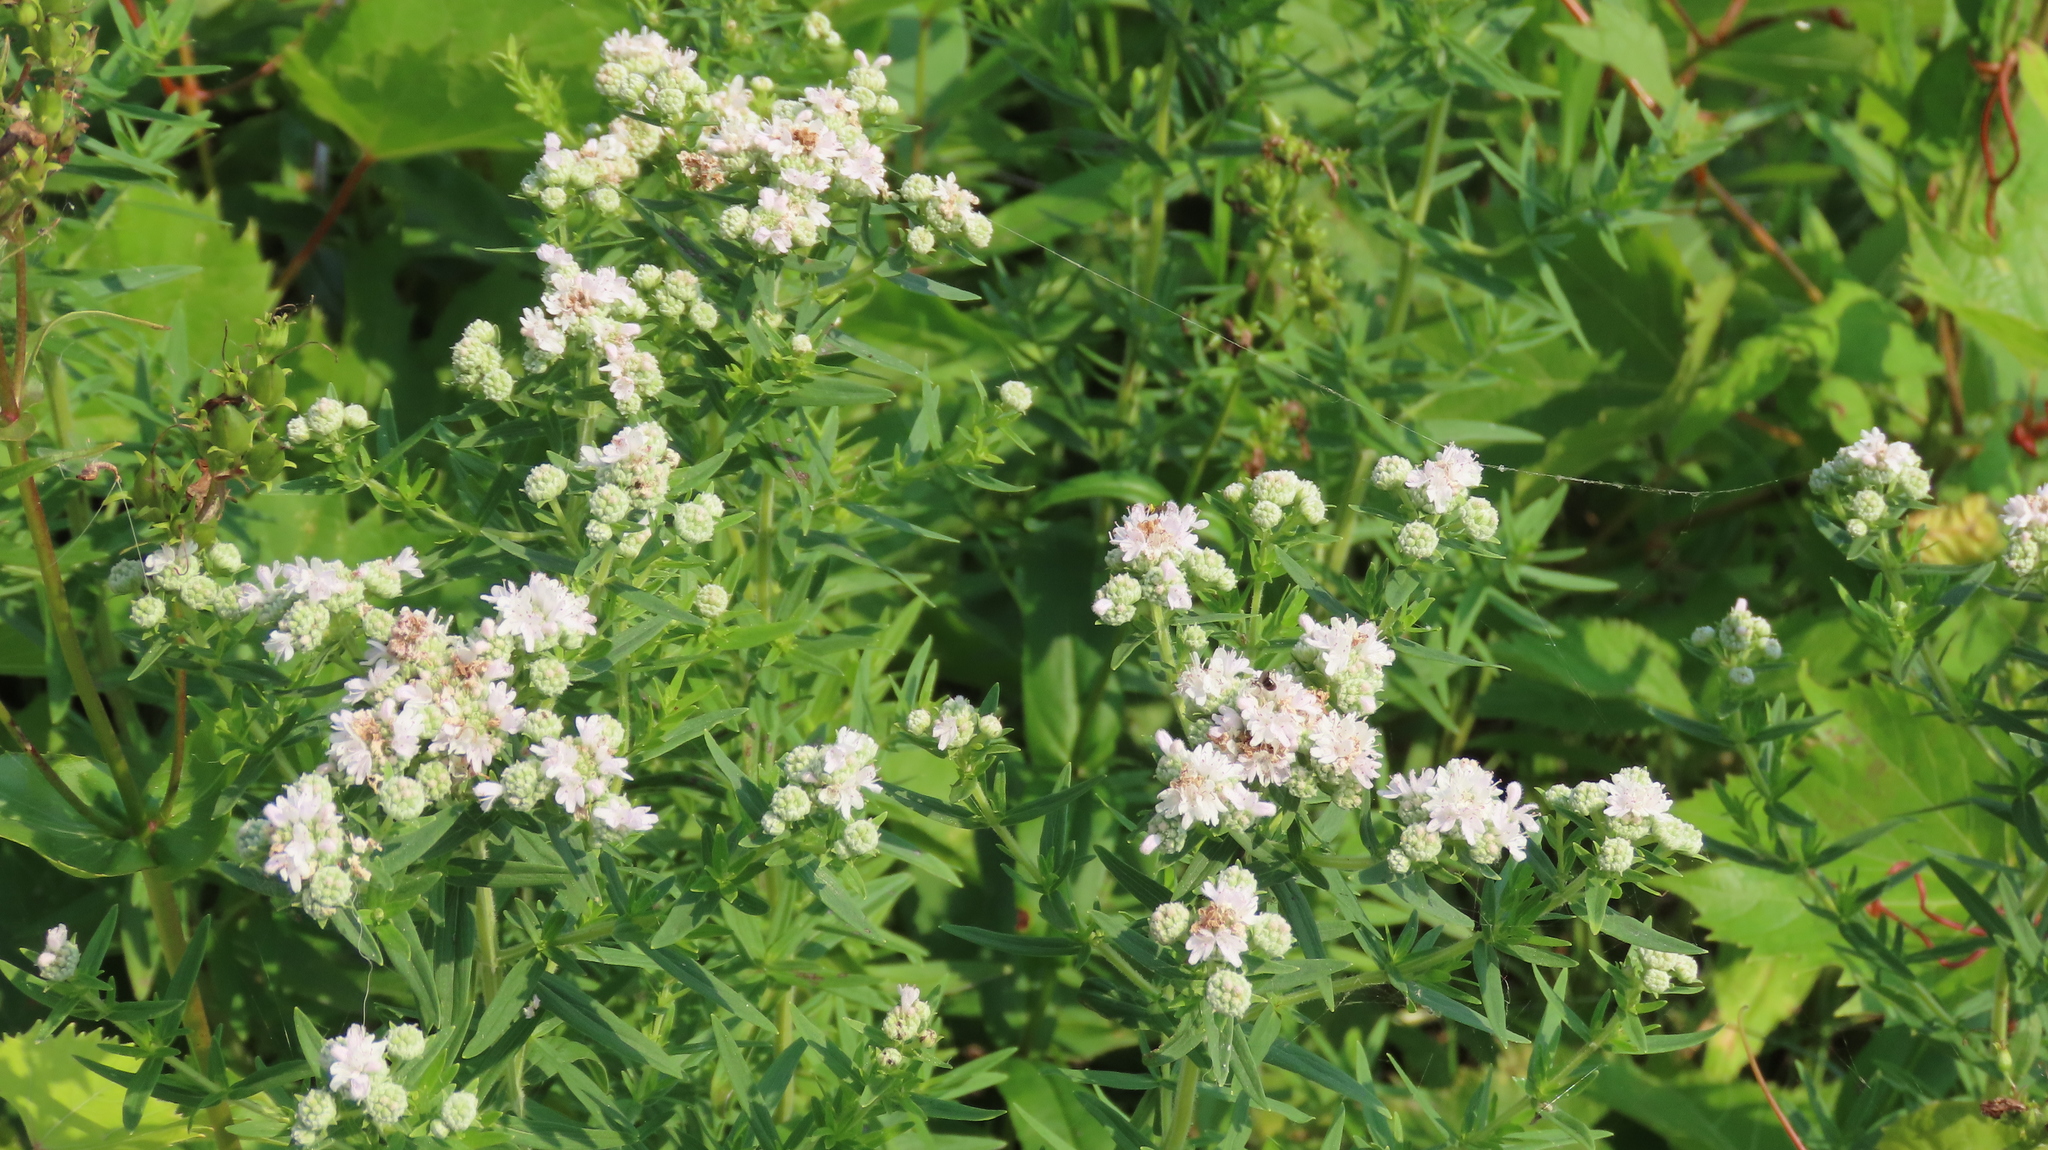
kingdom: Plantae
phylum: Tracheophyta
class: Magnoliopsida
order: Lamiales
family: Lamiaceae
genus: Pycnanthemum
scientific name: Pycnanthemum virginianum
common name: Virginia mountain-mint
